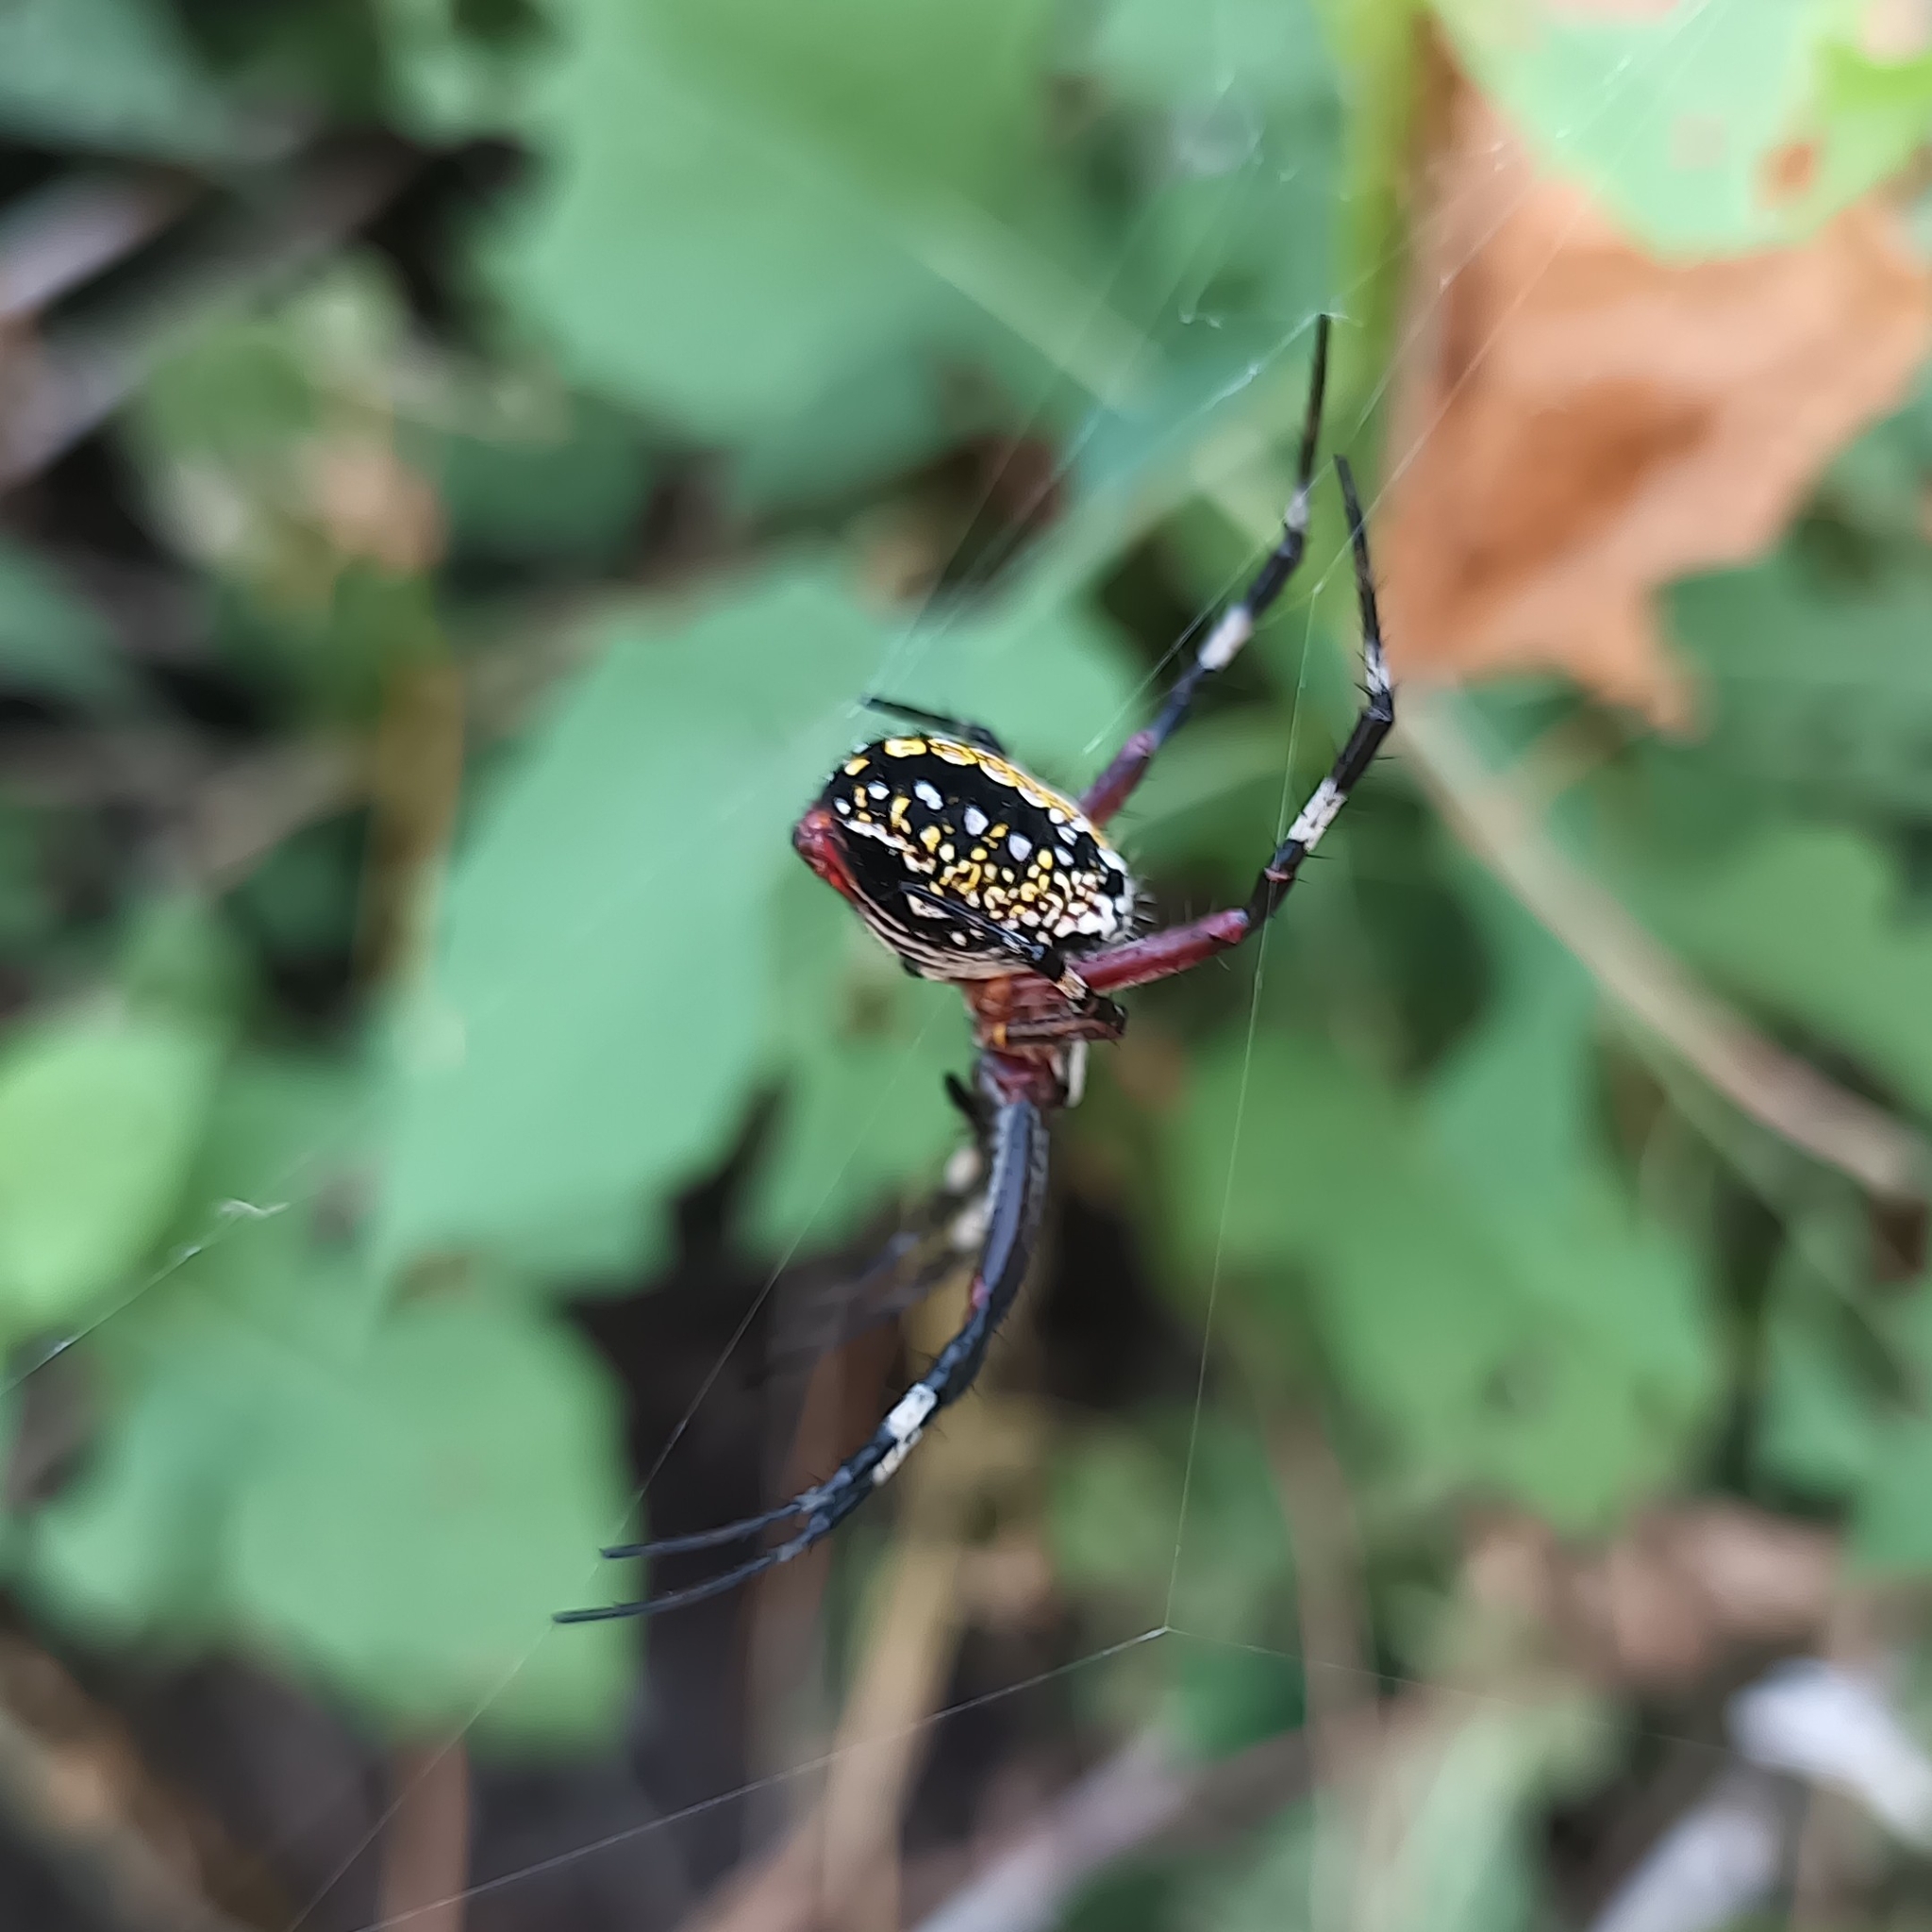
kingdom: Animalia
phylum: Arthropoda
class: Arachnida
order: Araneae
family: Araneidae
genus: Neoscona
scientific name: Neoscona oaxacensis
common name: Orb weavers
